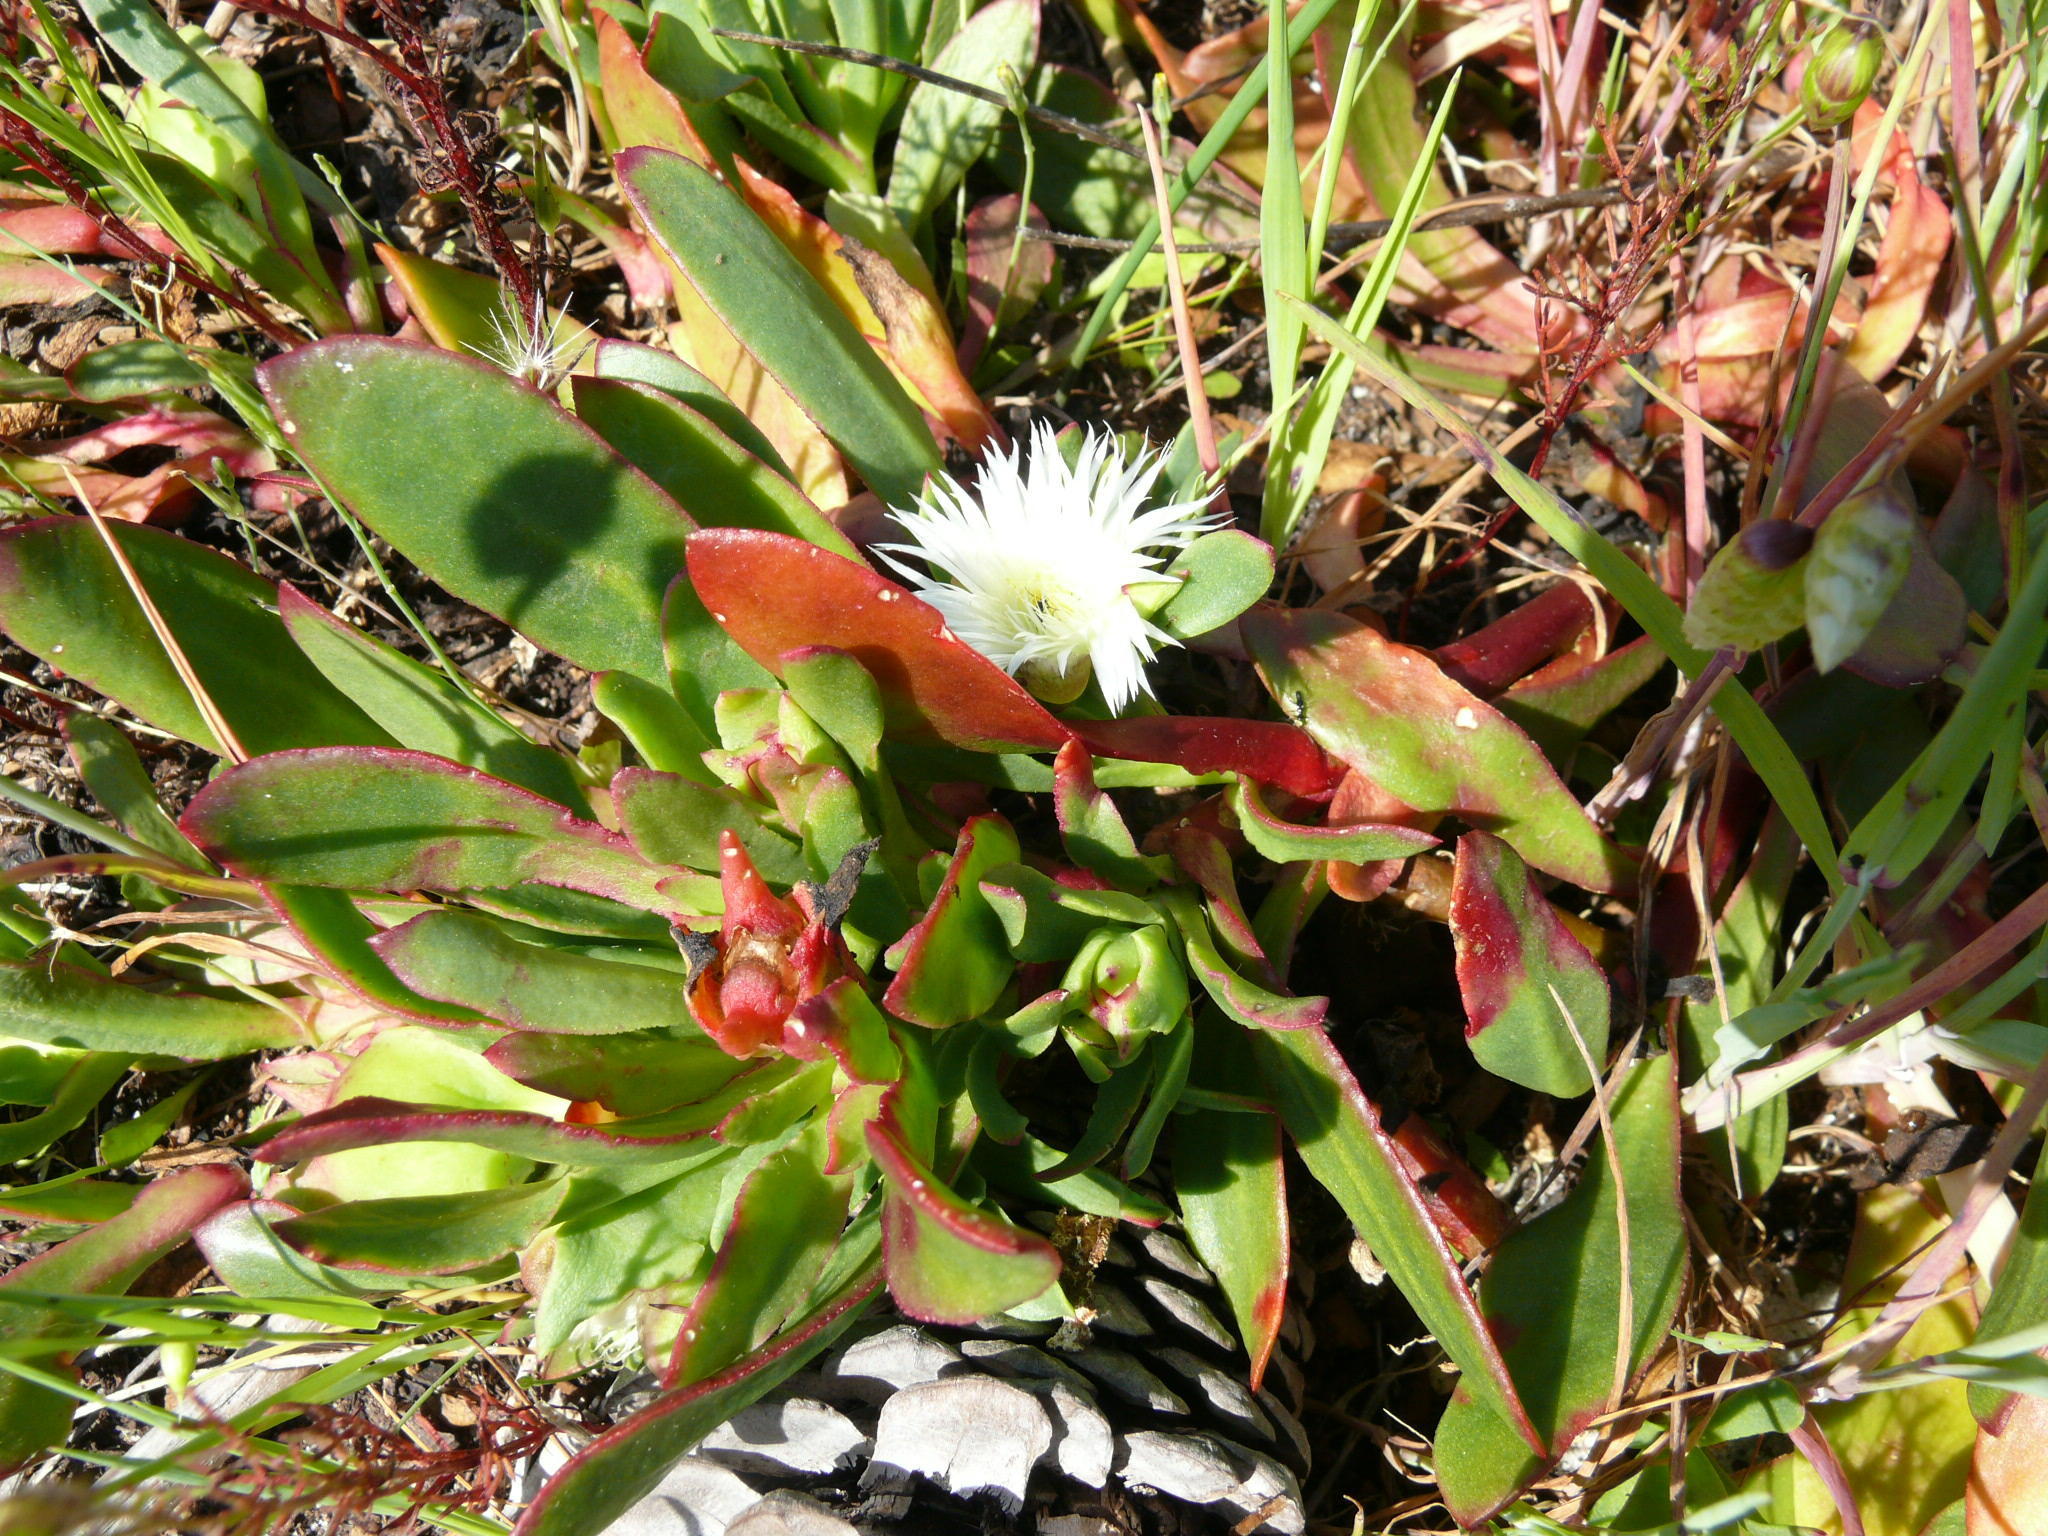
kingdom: Plantae
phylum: Tracheophyta
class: Magnoliopsida
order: Caryophyllales
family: Aizoaceae
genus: Skiatophytum
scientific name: Skiatophytum tripolium
